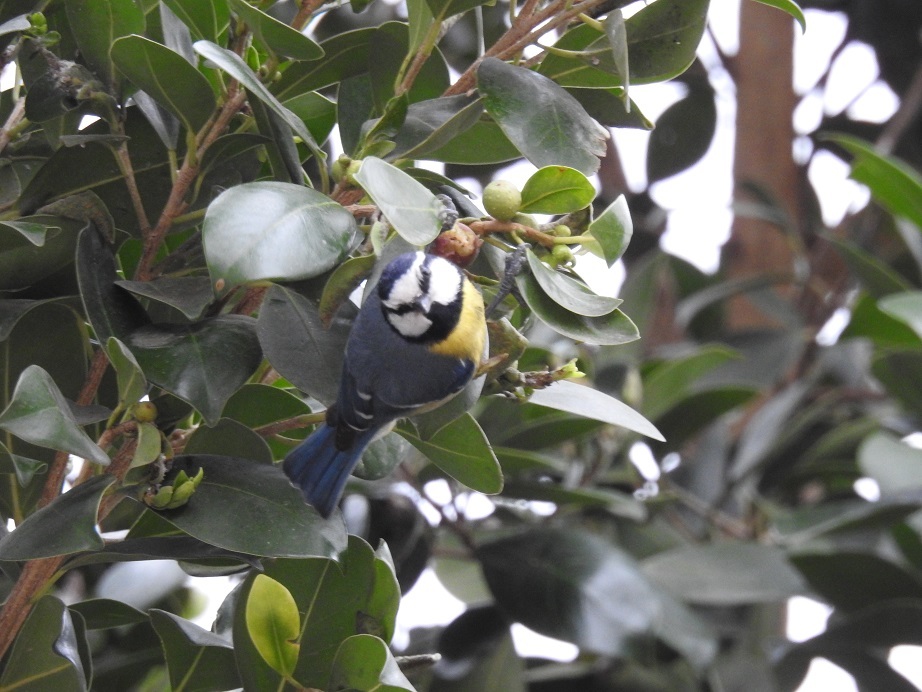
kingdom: Animalia
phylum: Chordata
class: Aves
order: Passeriformes
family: Paridae
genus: Cyanistes
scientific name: Cyanistes teneriffae
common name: African blue tit
